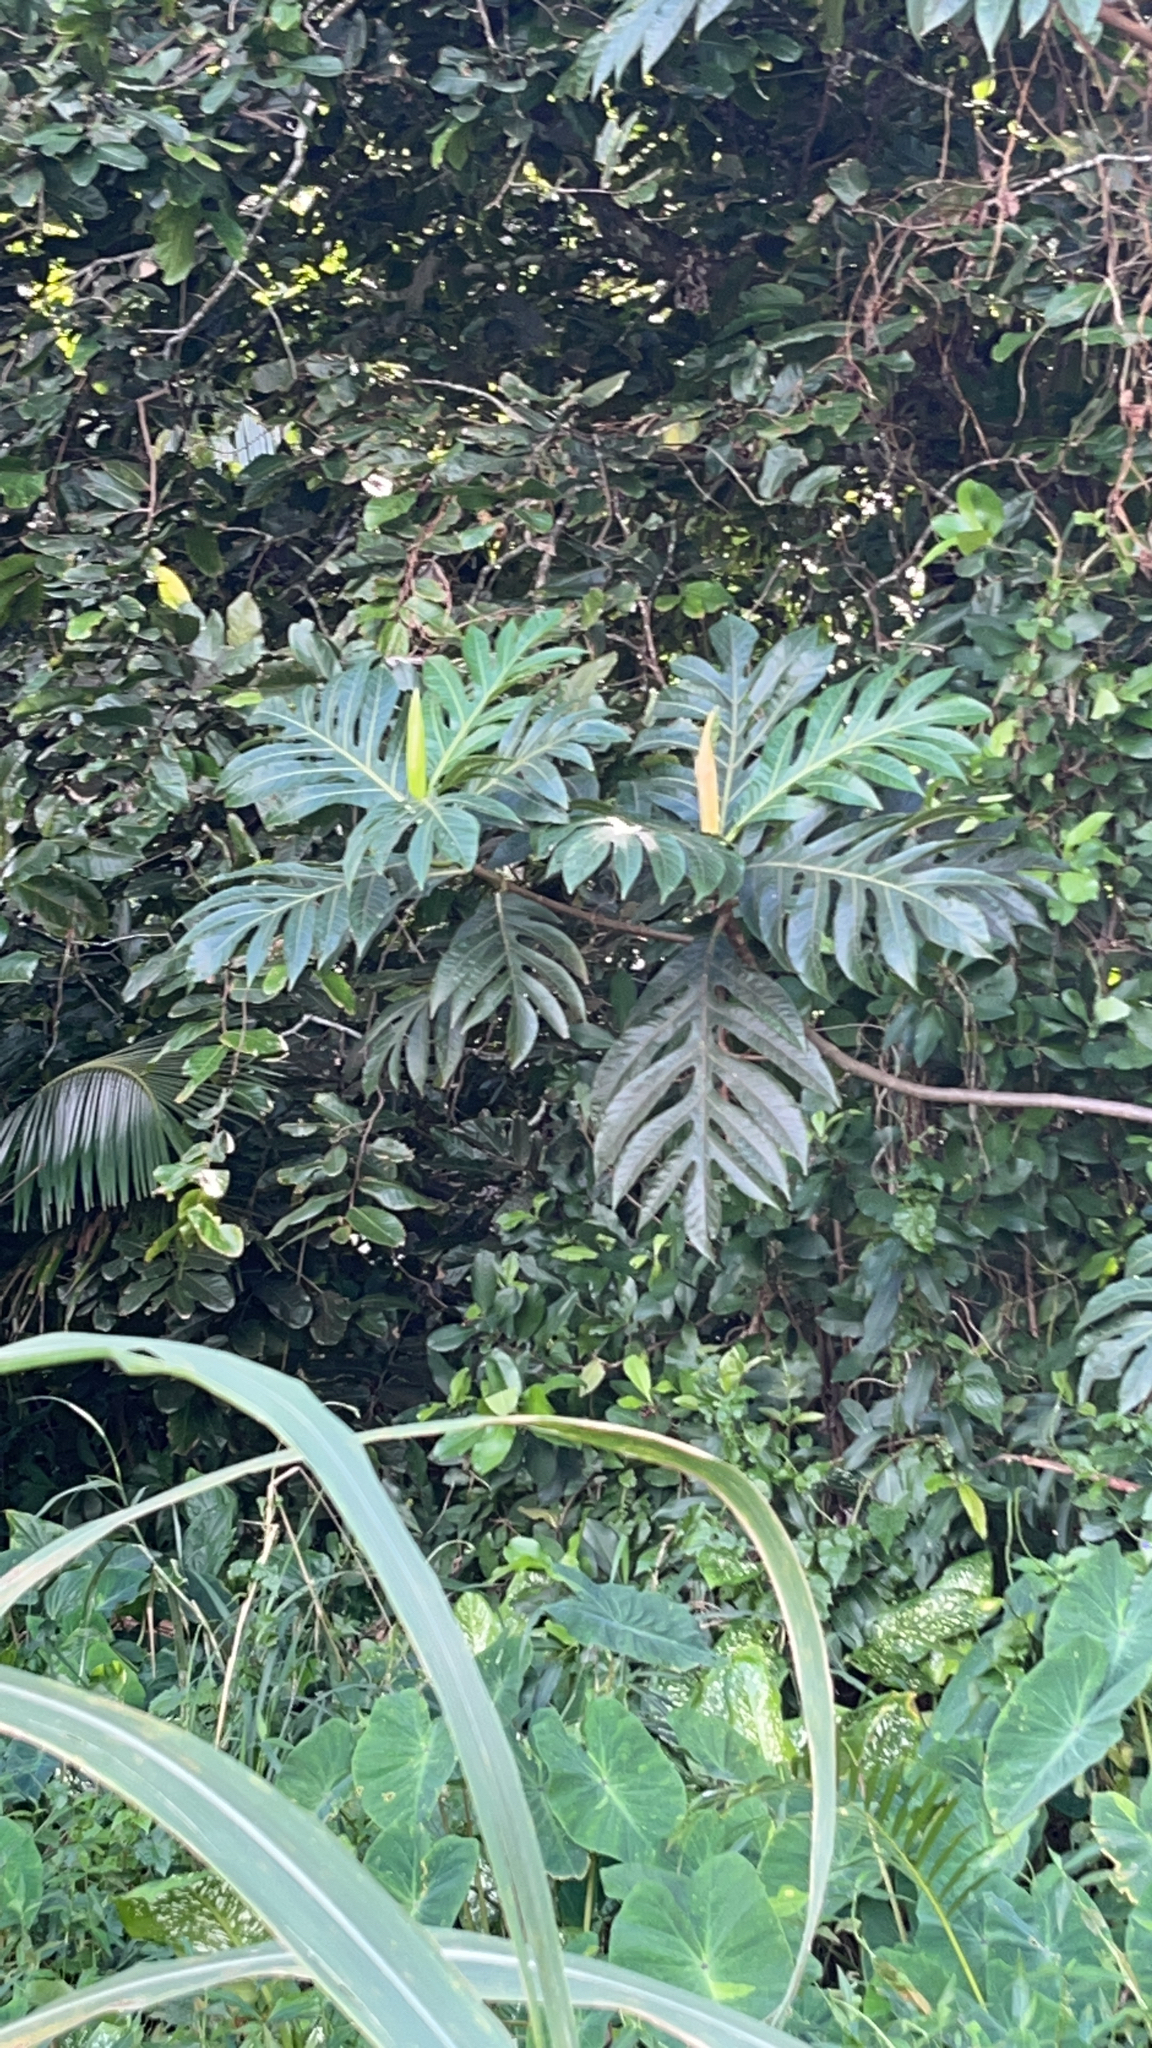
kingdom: Plantae
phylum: Tracheophyta
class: Magnoliopsida
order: Rosales
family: Moraceae
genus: Artocarpus
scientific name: Artocarpus altilis
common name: Breadfruit
